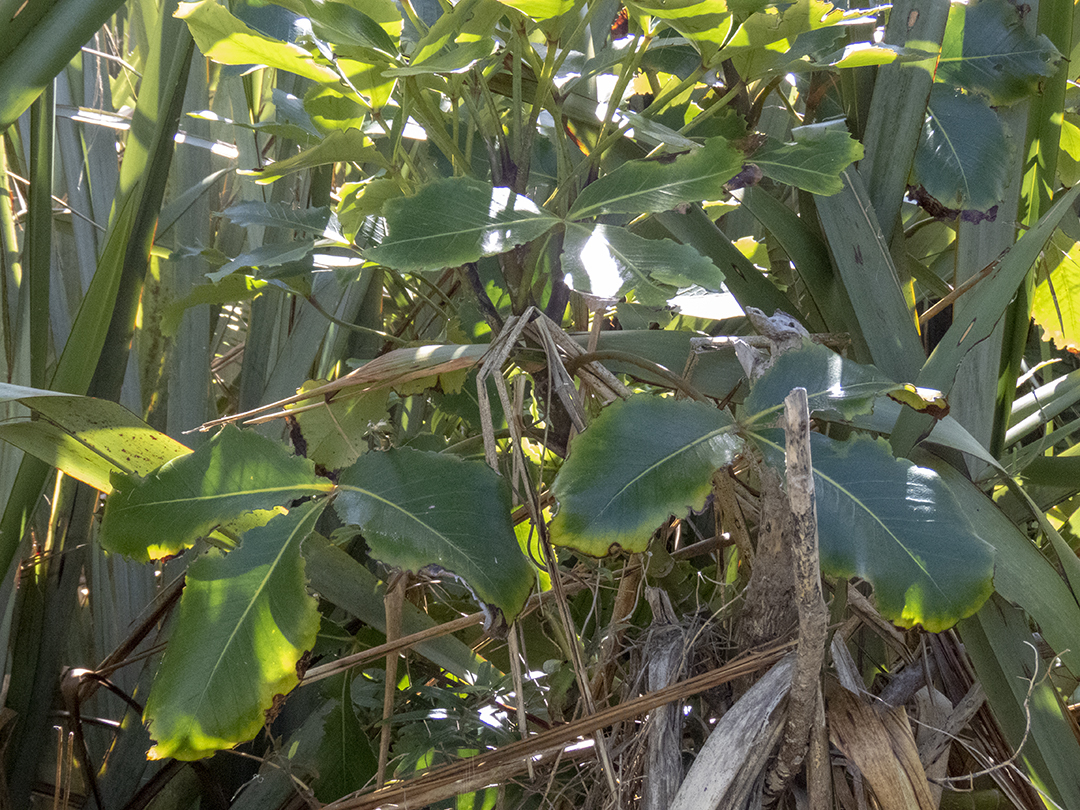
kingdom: Plantae
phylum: Tracheophyta
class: Magnoliopsida
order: Apiales
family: Araliaceae
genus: Neopanax
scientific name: Neopanax colensoi
